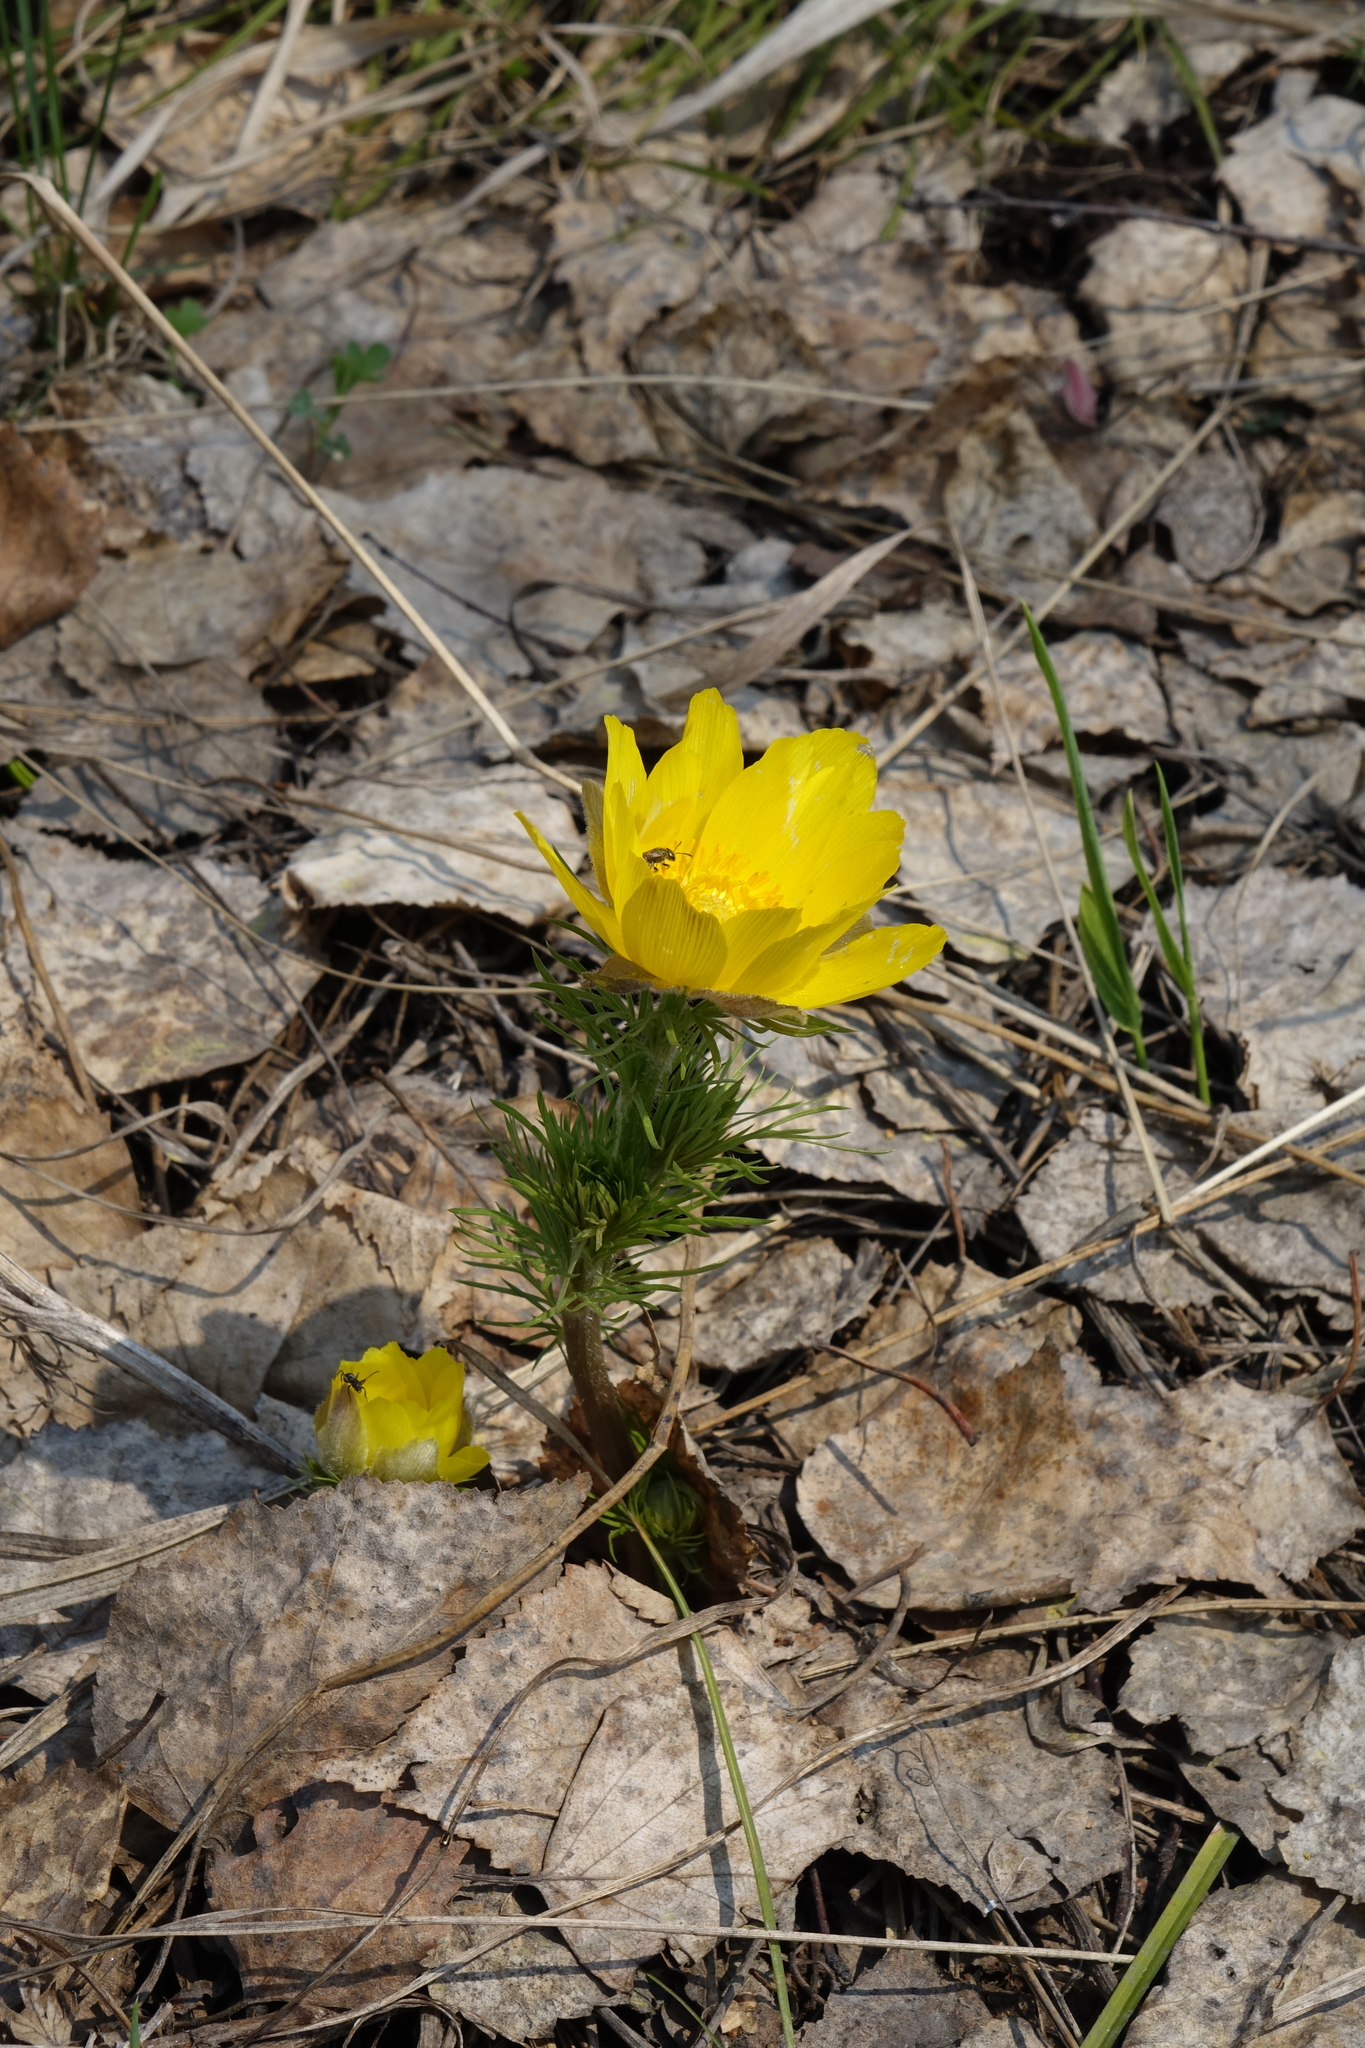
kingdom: Plantae
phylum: Tracheophyta
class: Magnoliopsida
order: Ranunculales
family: Ranunculaceae
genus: Adonis
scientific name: Adonis vernalis
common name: Yellow pheasants-eye
